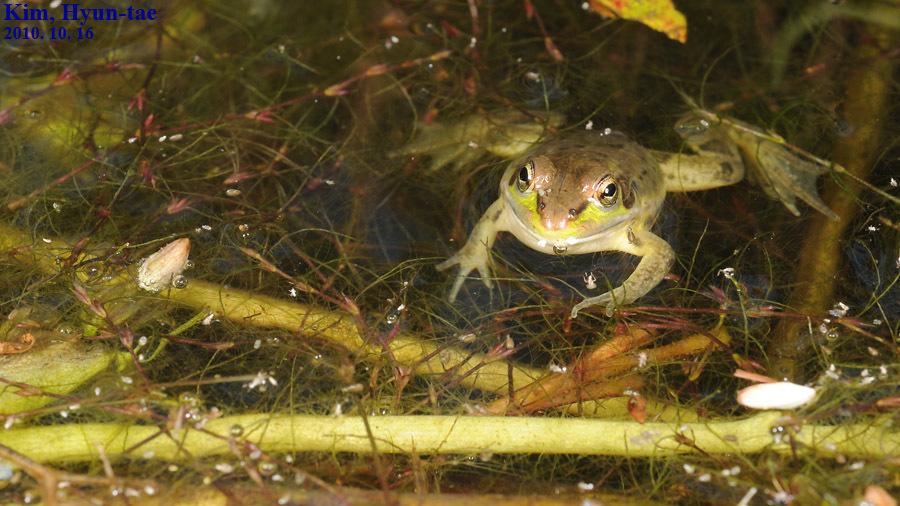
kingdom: Animalia
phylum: Chordata
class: Amphibia
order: Anura
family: Ranidae
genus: Pelophylax
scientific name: Pelophylax chosenicus
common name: Gold-spotted pond frog
